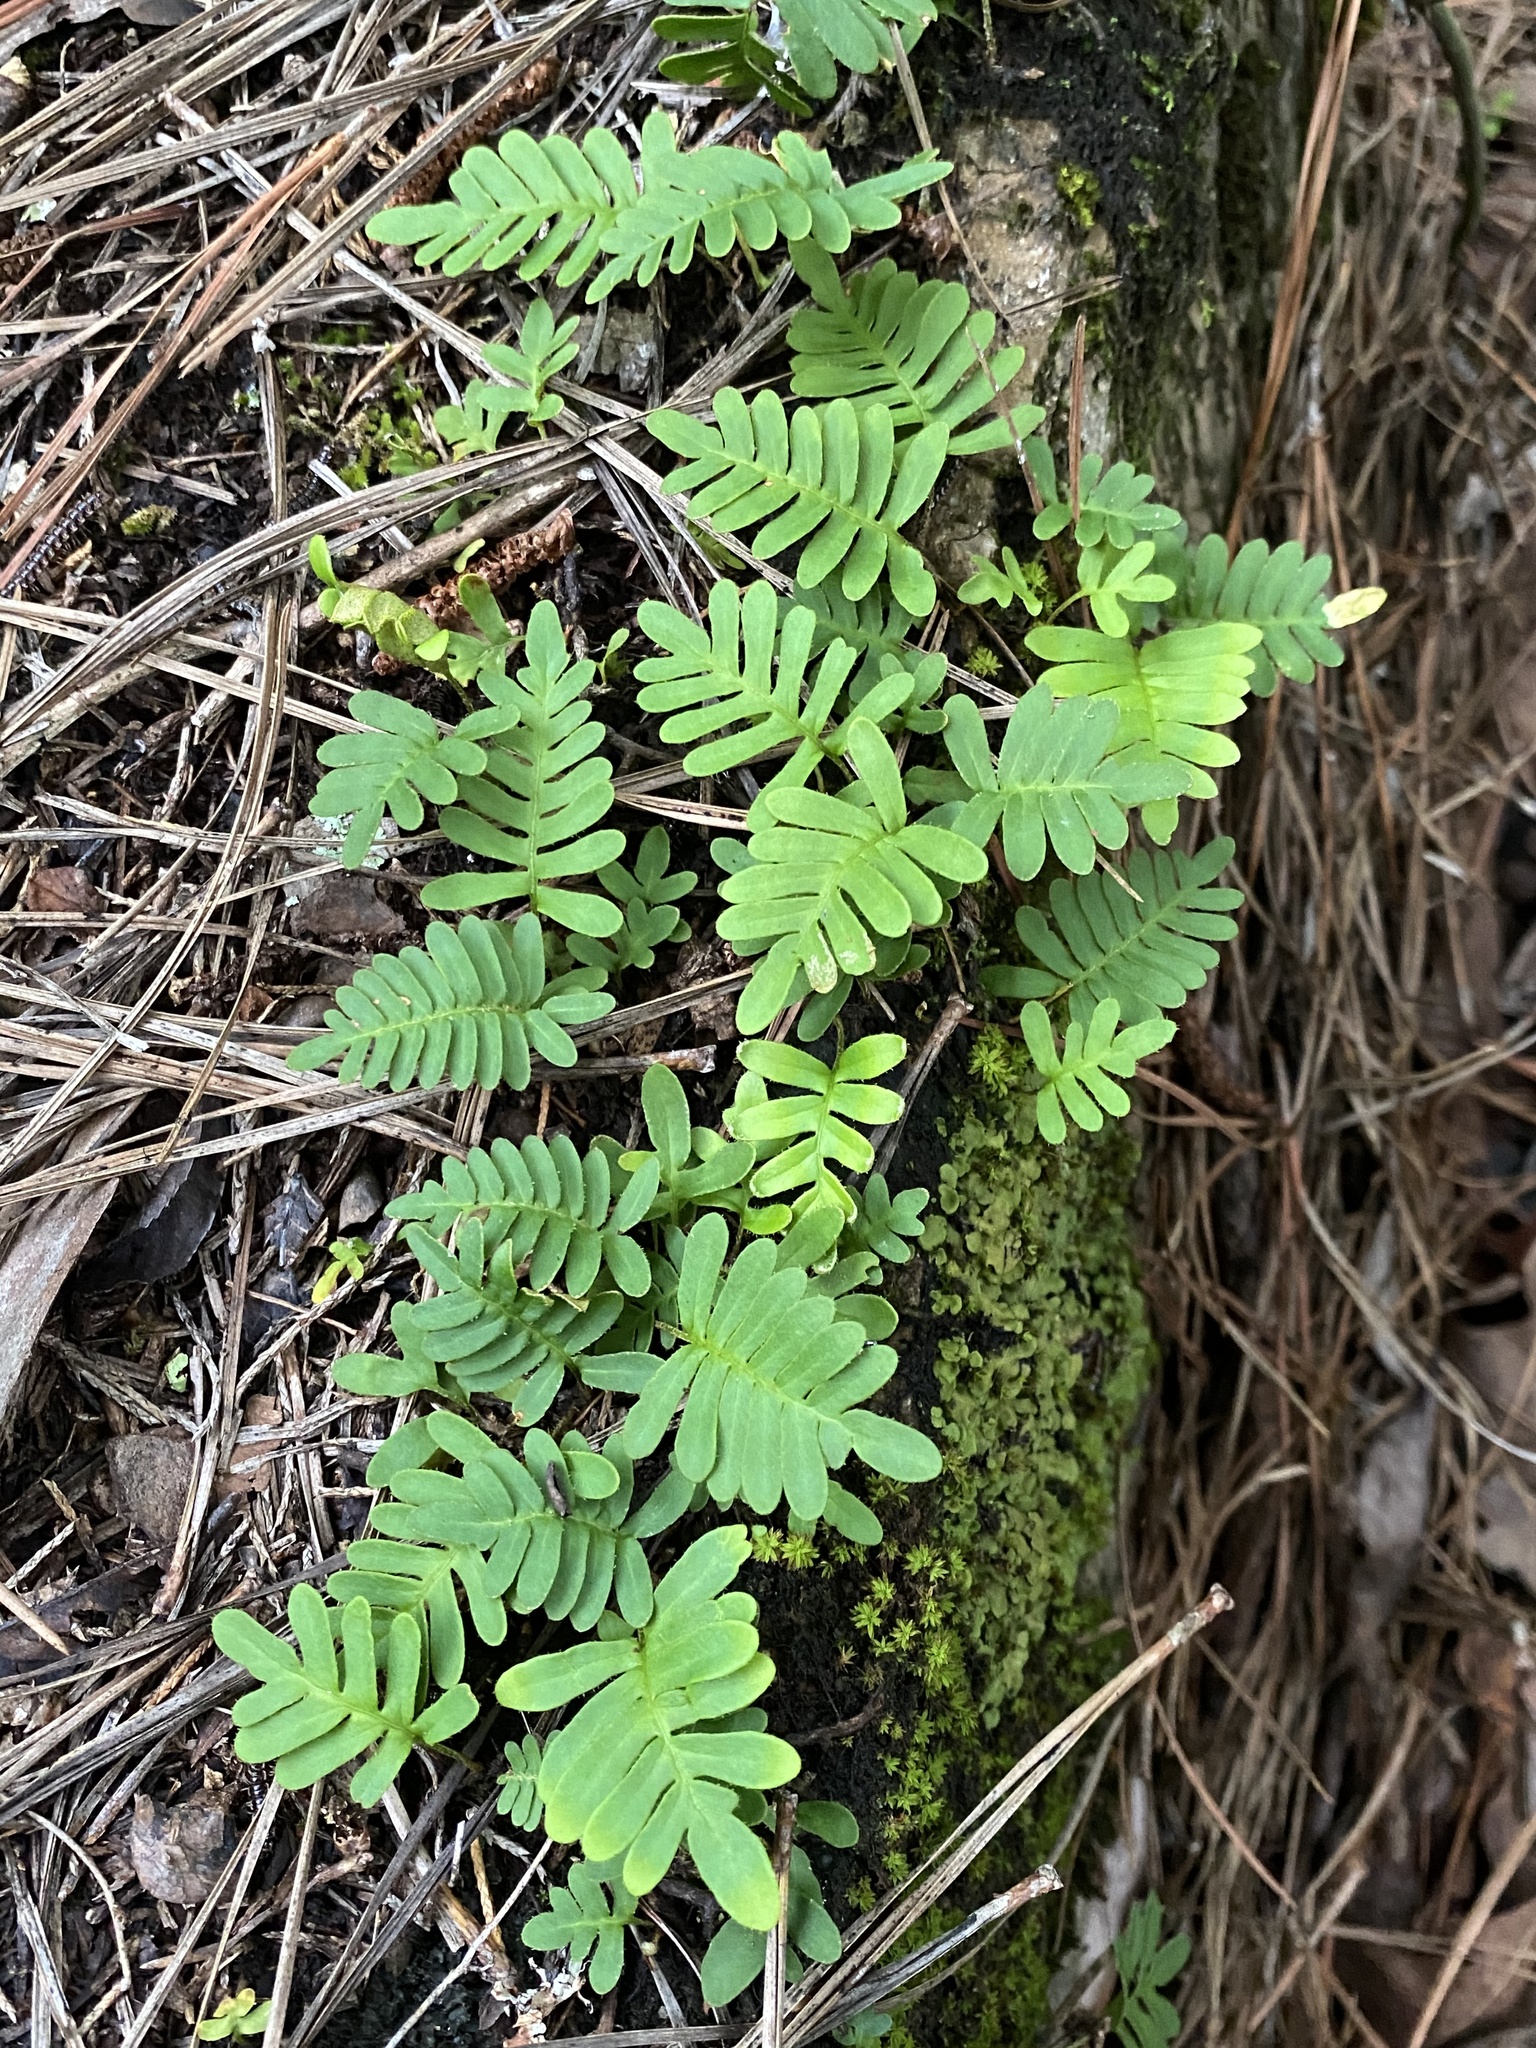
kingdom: Plantae
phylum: Tracheophyta
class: Polypodiopsida
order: Polypodiales
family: Polypodiaceae
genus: Pleopeltis
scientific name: Pleopeltis michauxiana
